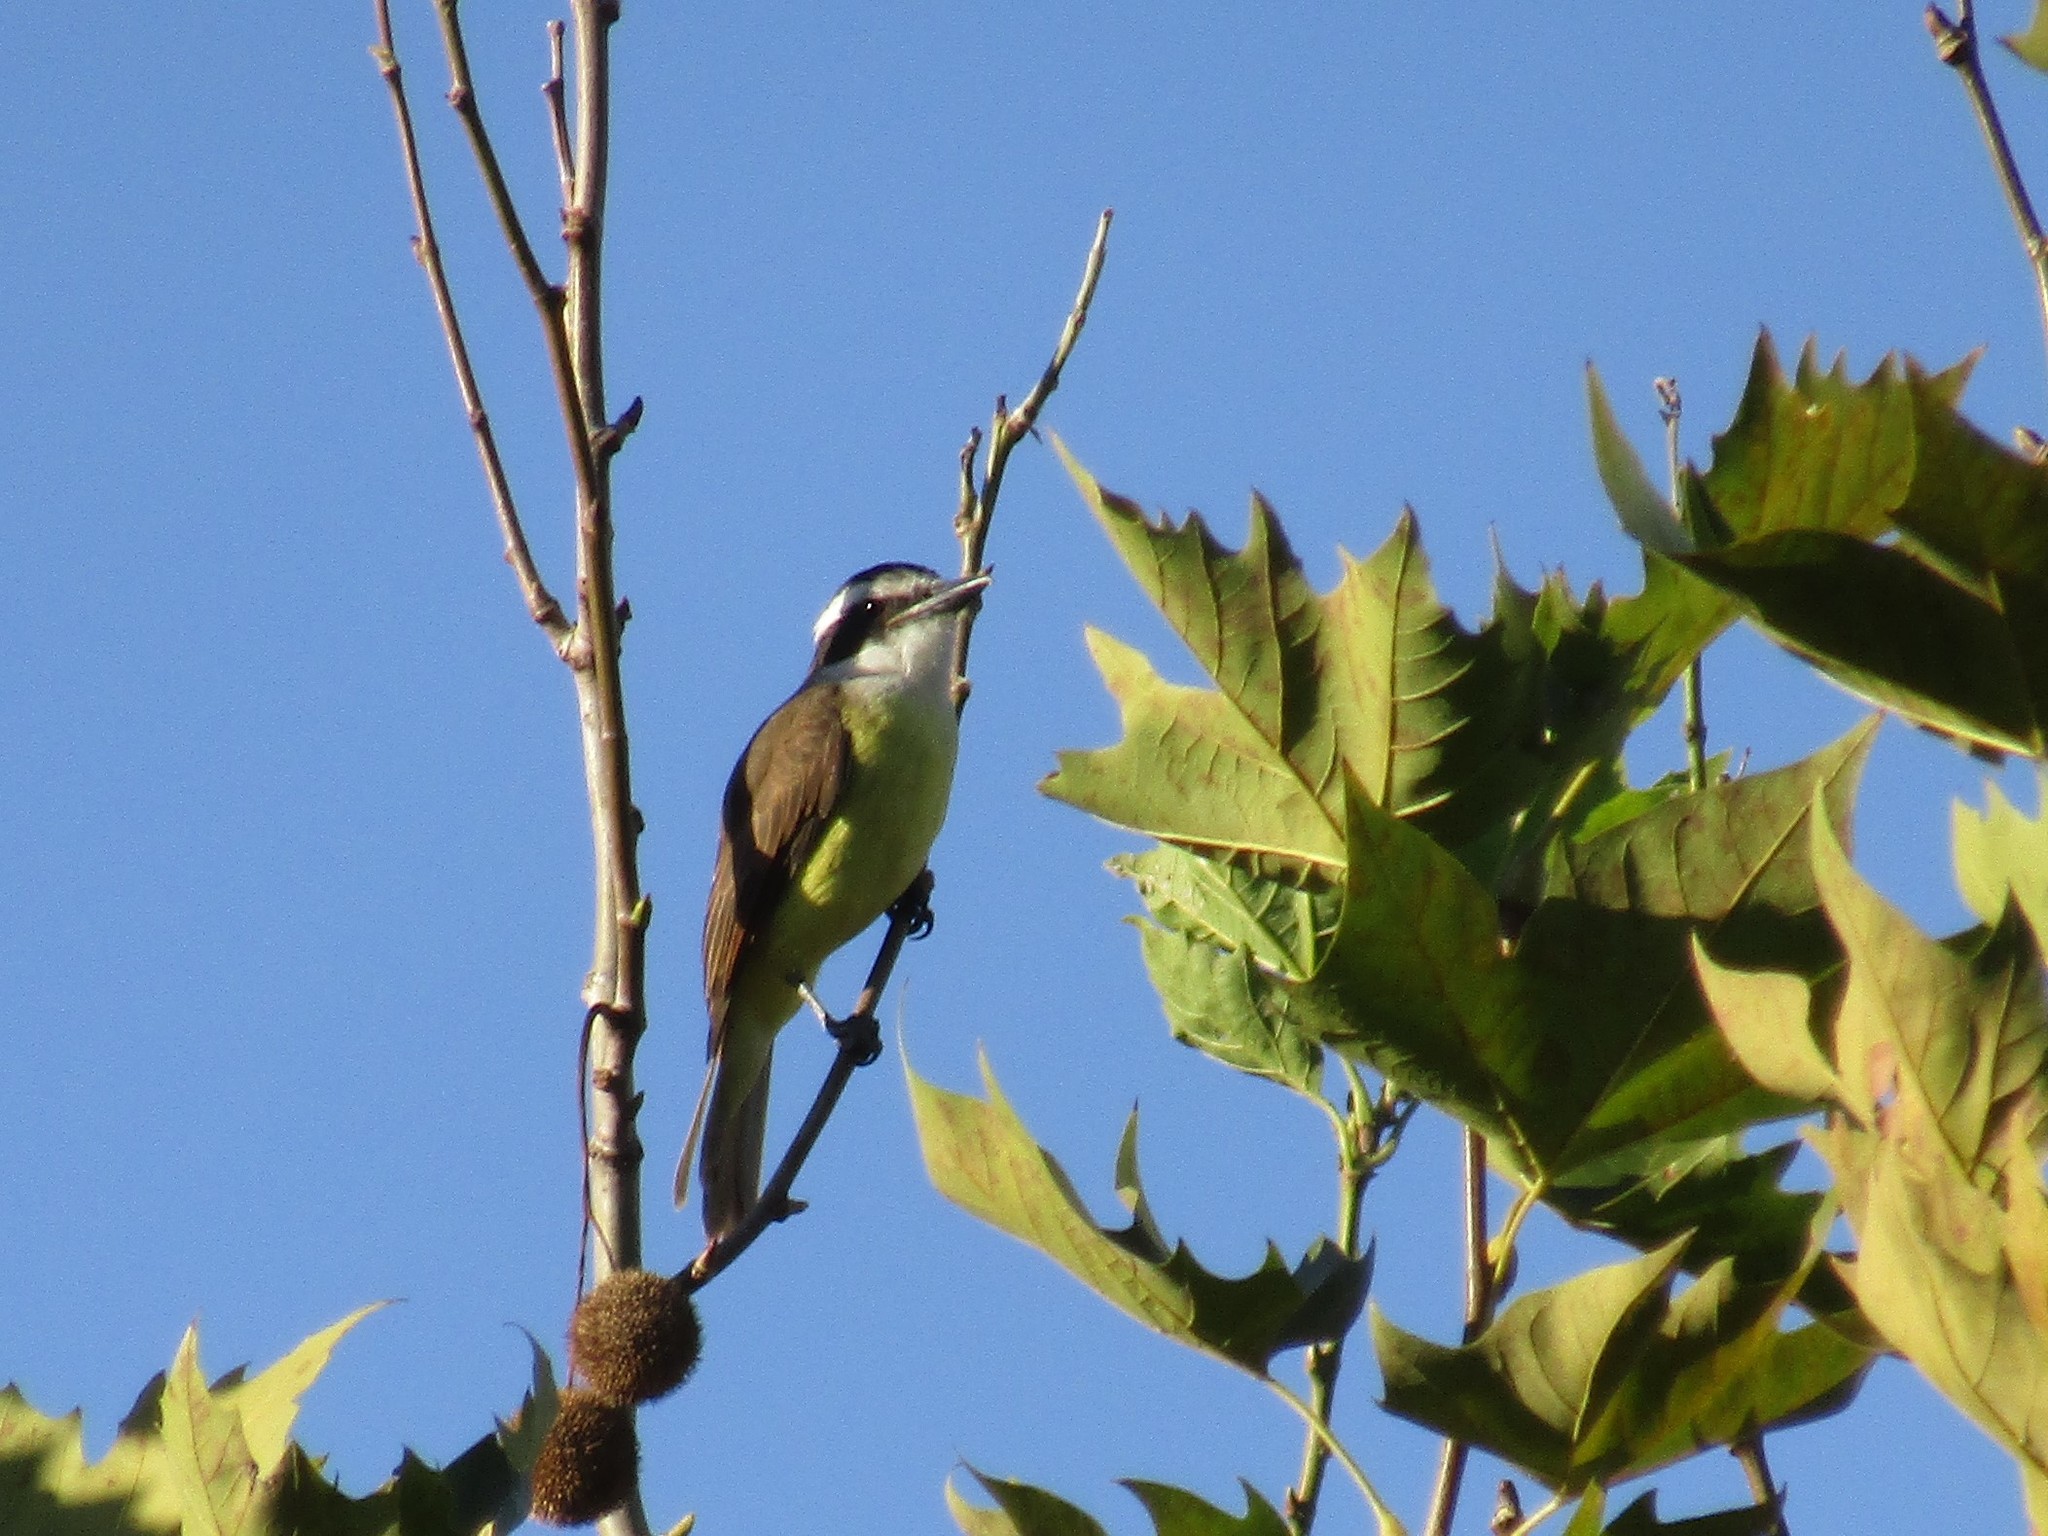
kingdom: Animalia
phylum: Chordata
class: Aves
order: Passeriformes
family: Tyrannidae
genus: Pitangus
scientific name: Pitangus sulphuratus
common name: Great kiskadee
